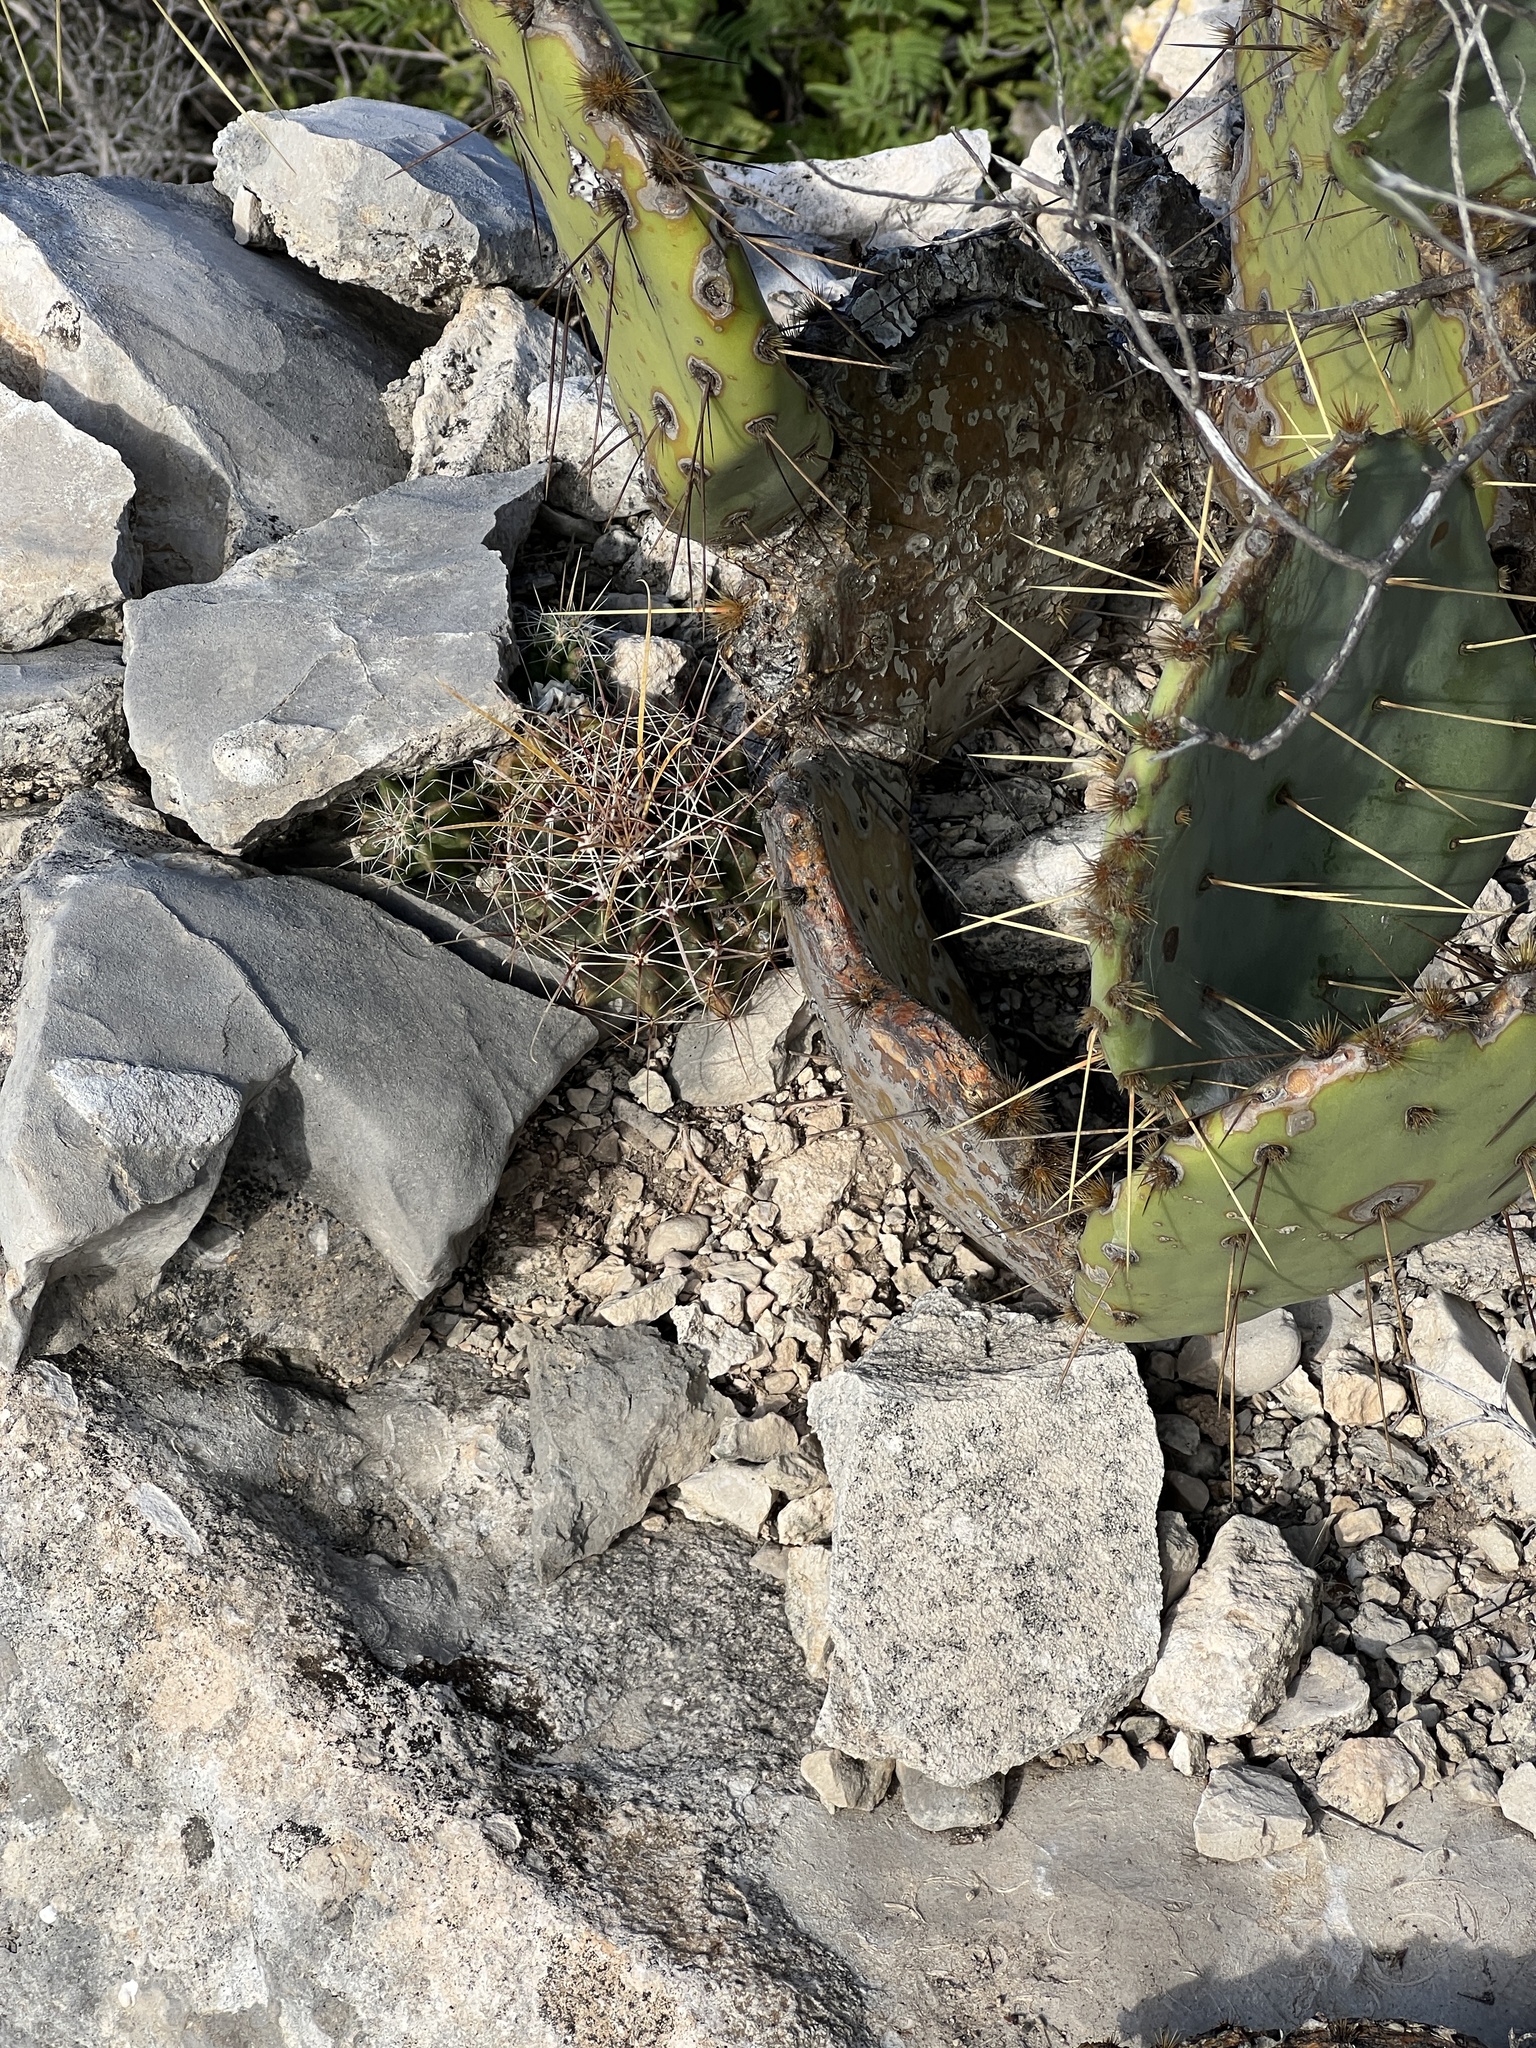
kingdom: Plantae
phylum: Tracheophyta
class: Magnoliopsida
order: Caryophyllales
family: Cactaceae
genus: Bisnaga
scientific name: Bisnaga hamatacantha
